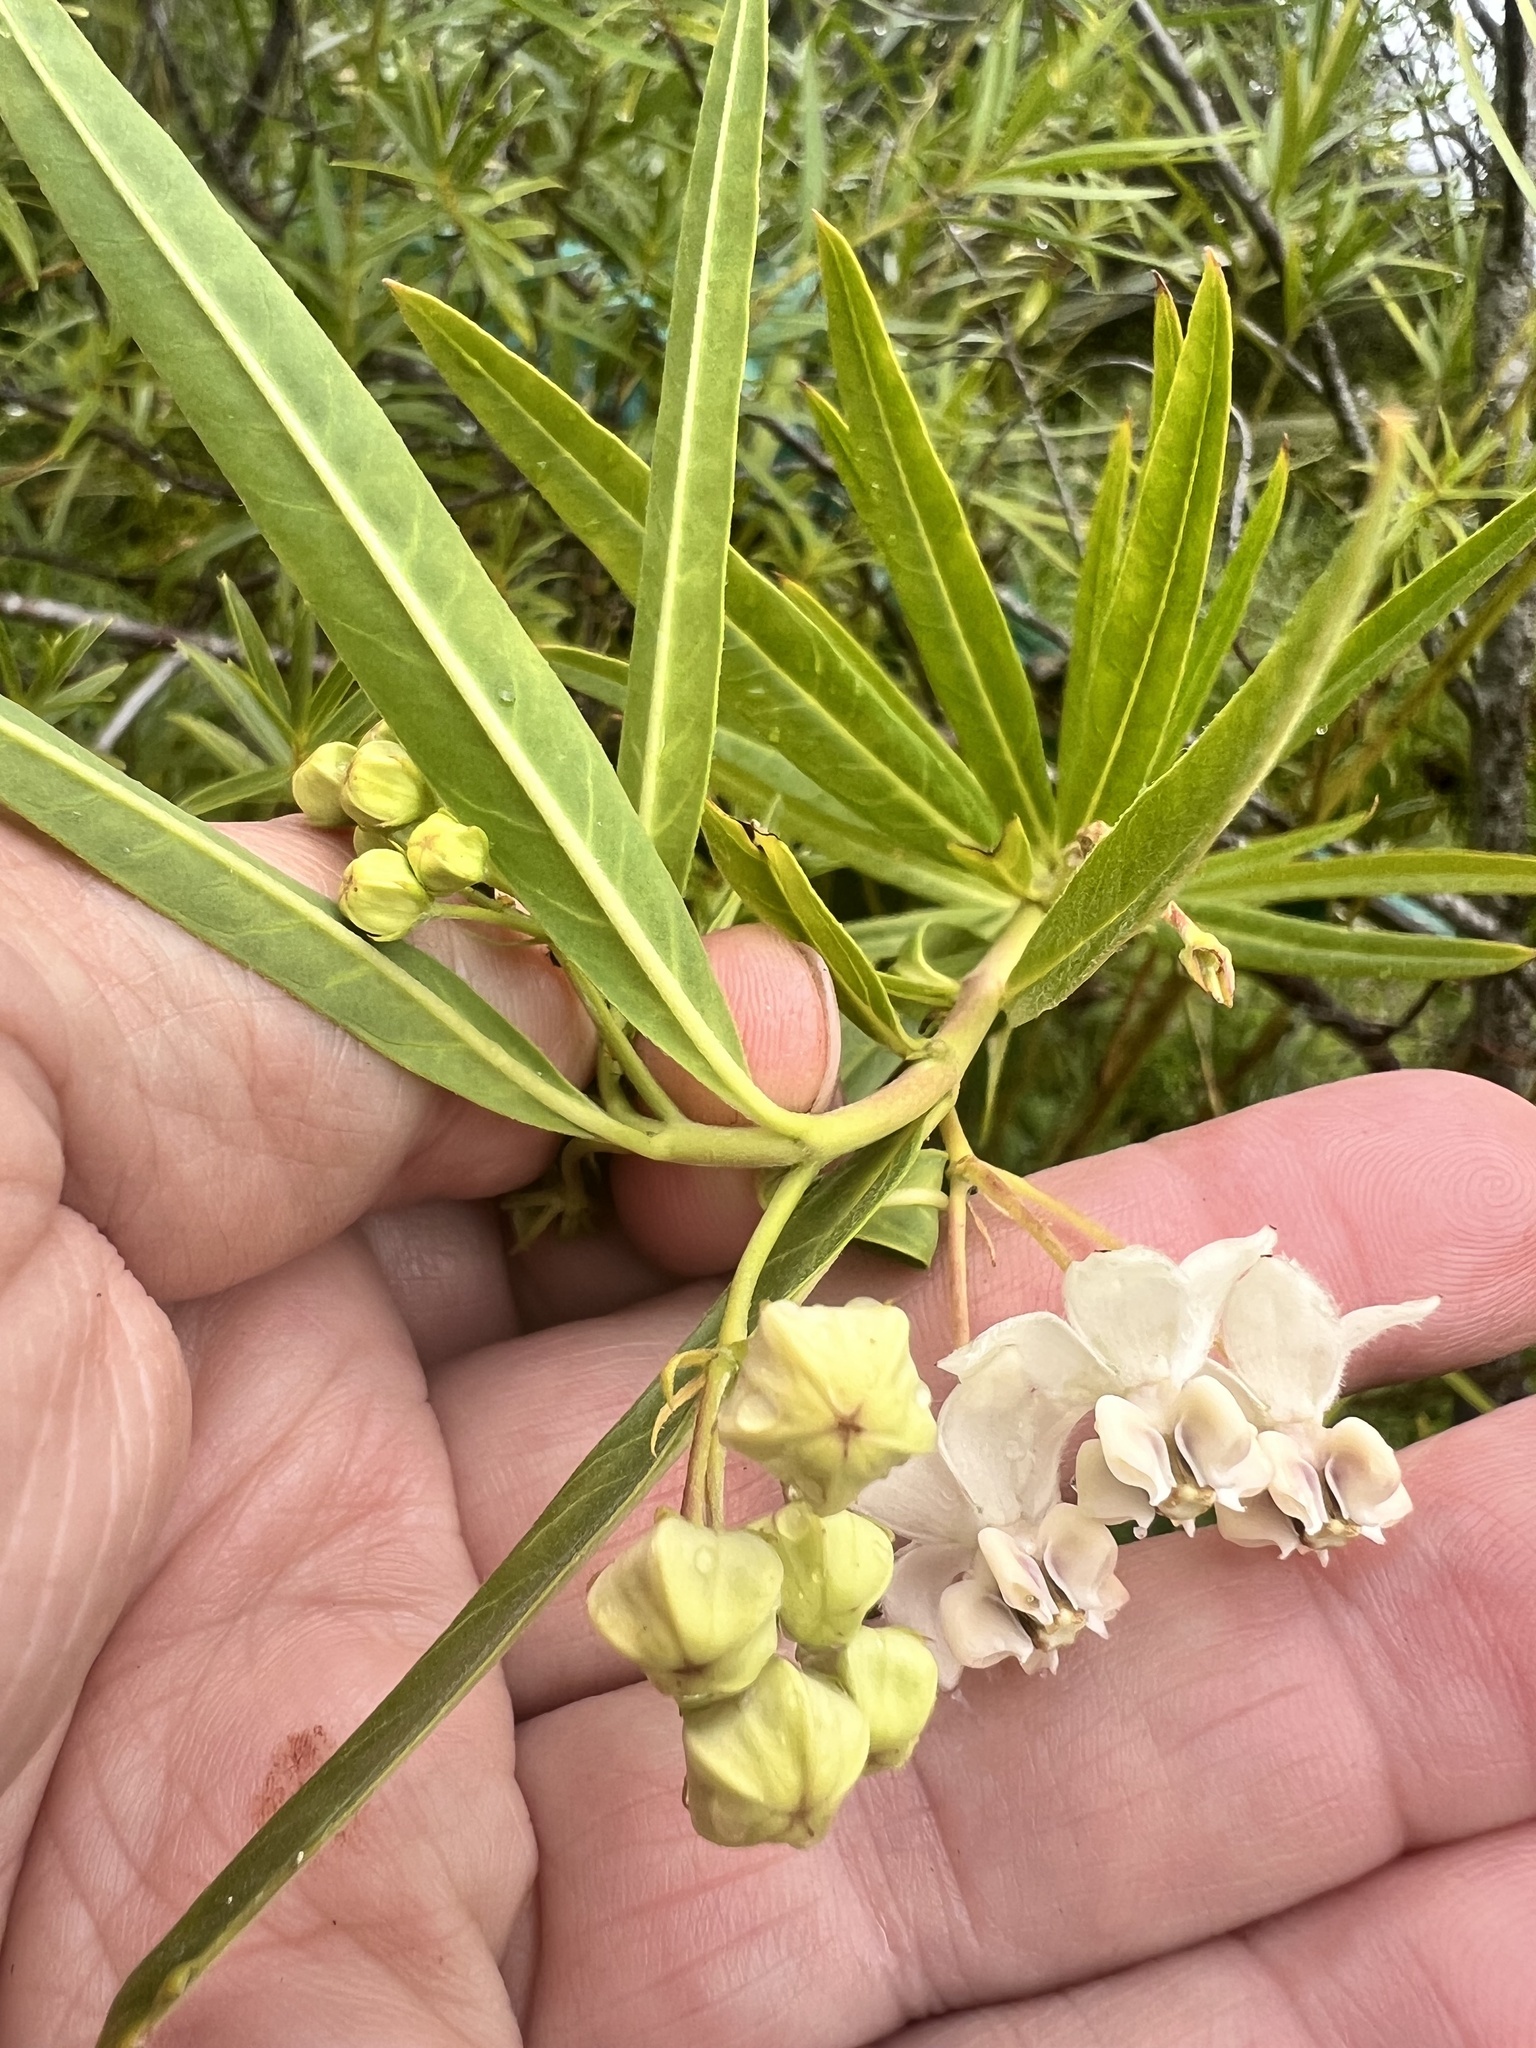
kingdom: Plantae
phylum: Tracheophyta
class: Magnoliopsida
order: Gentianales
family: Apocynaceae
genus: Gomphocarpus
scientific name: Gomphocarpus physocarpus
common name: Balloon cotton bush
